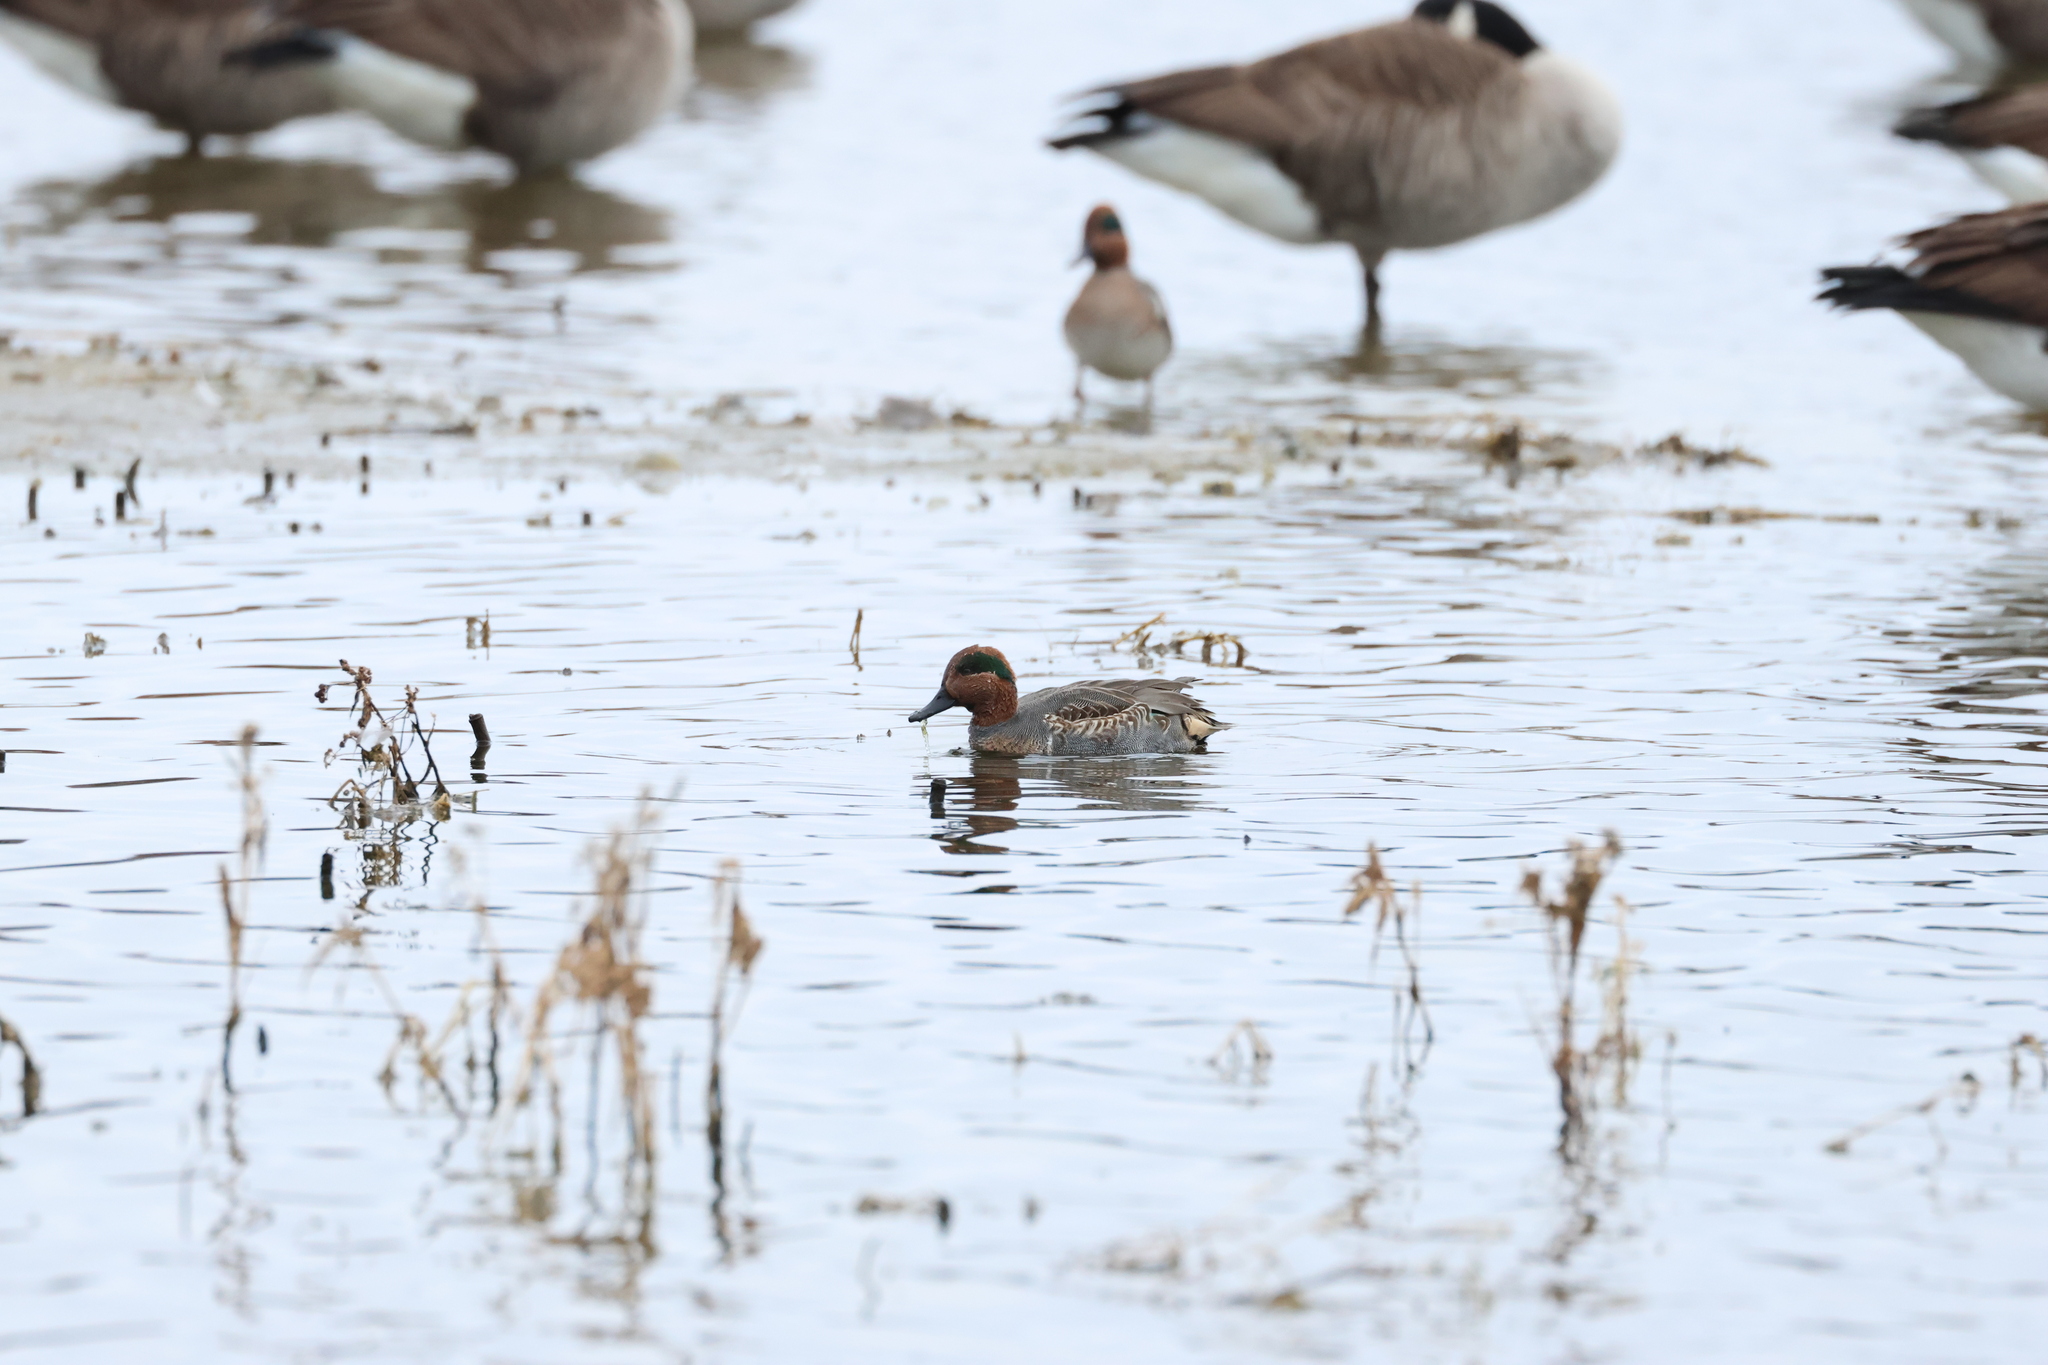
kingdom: Animalia
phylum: Chordata
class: Aves
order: Anseriformes
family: Anatidae
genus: Anas
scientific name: Anas crecca
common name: Eurasian teal
